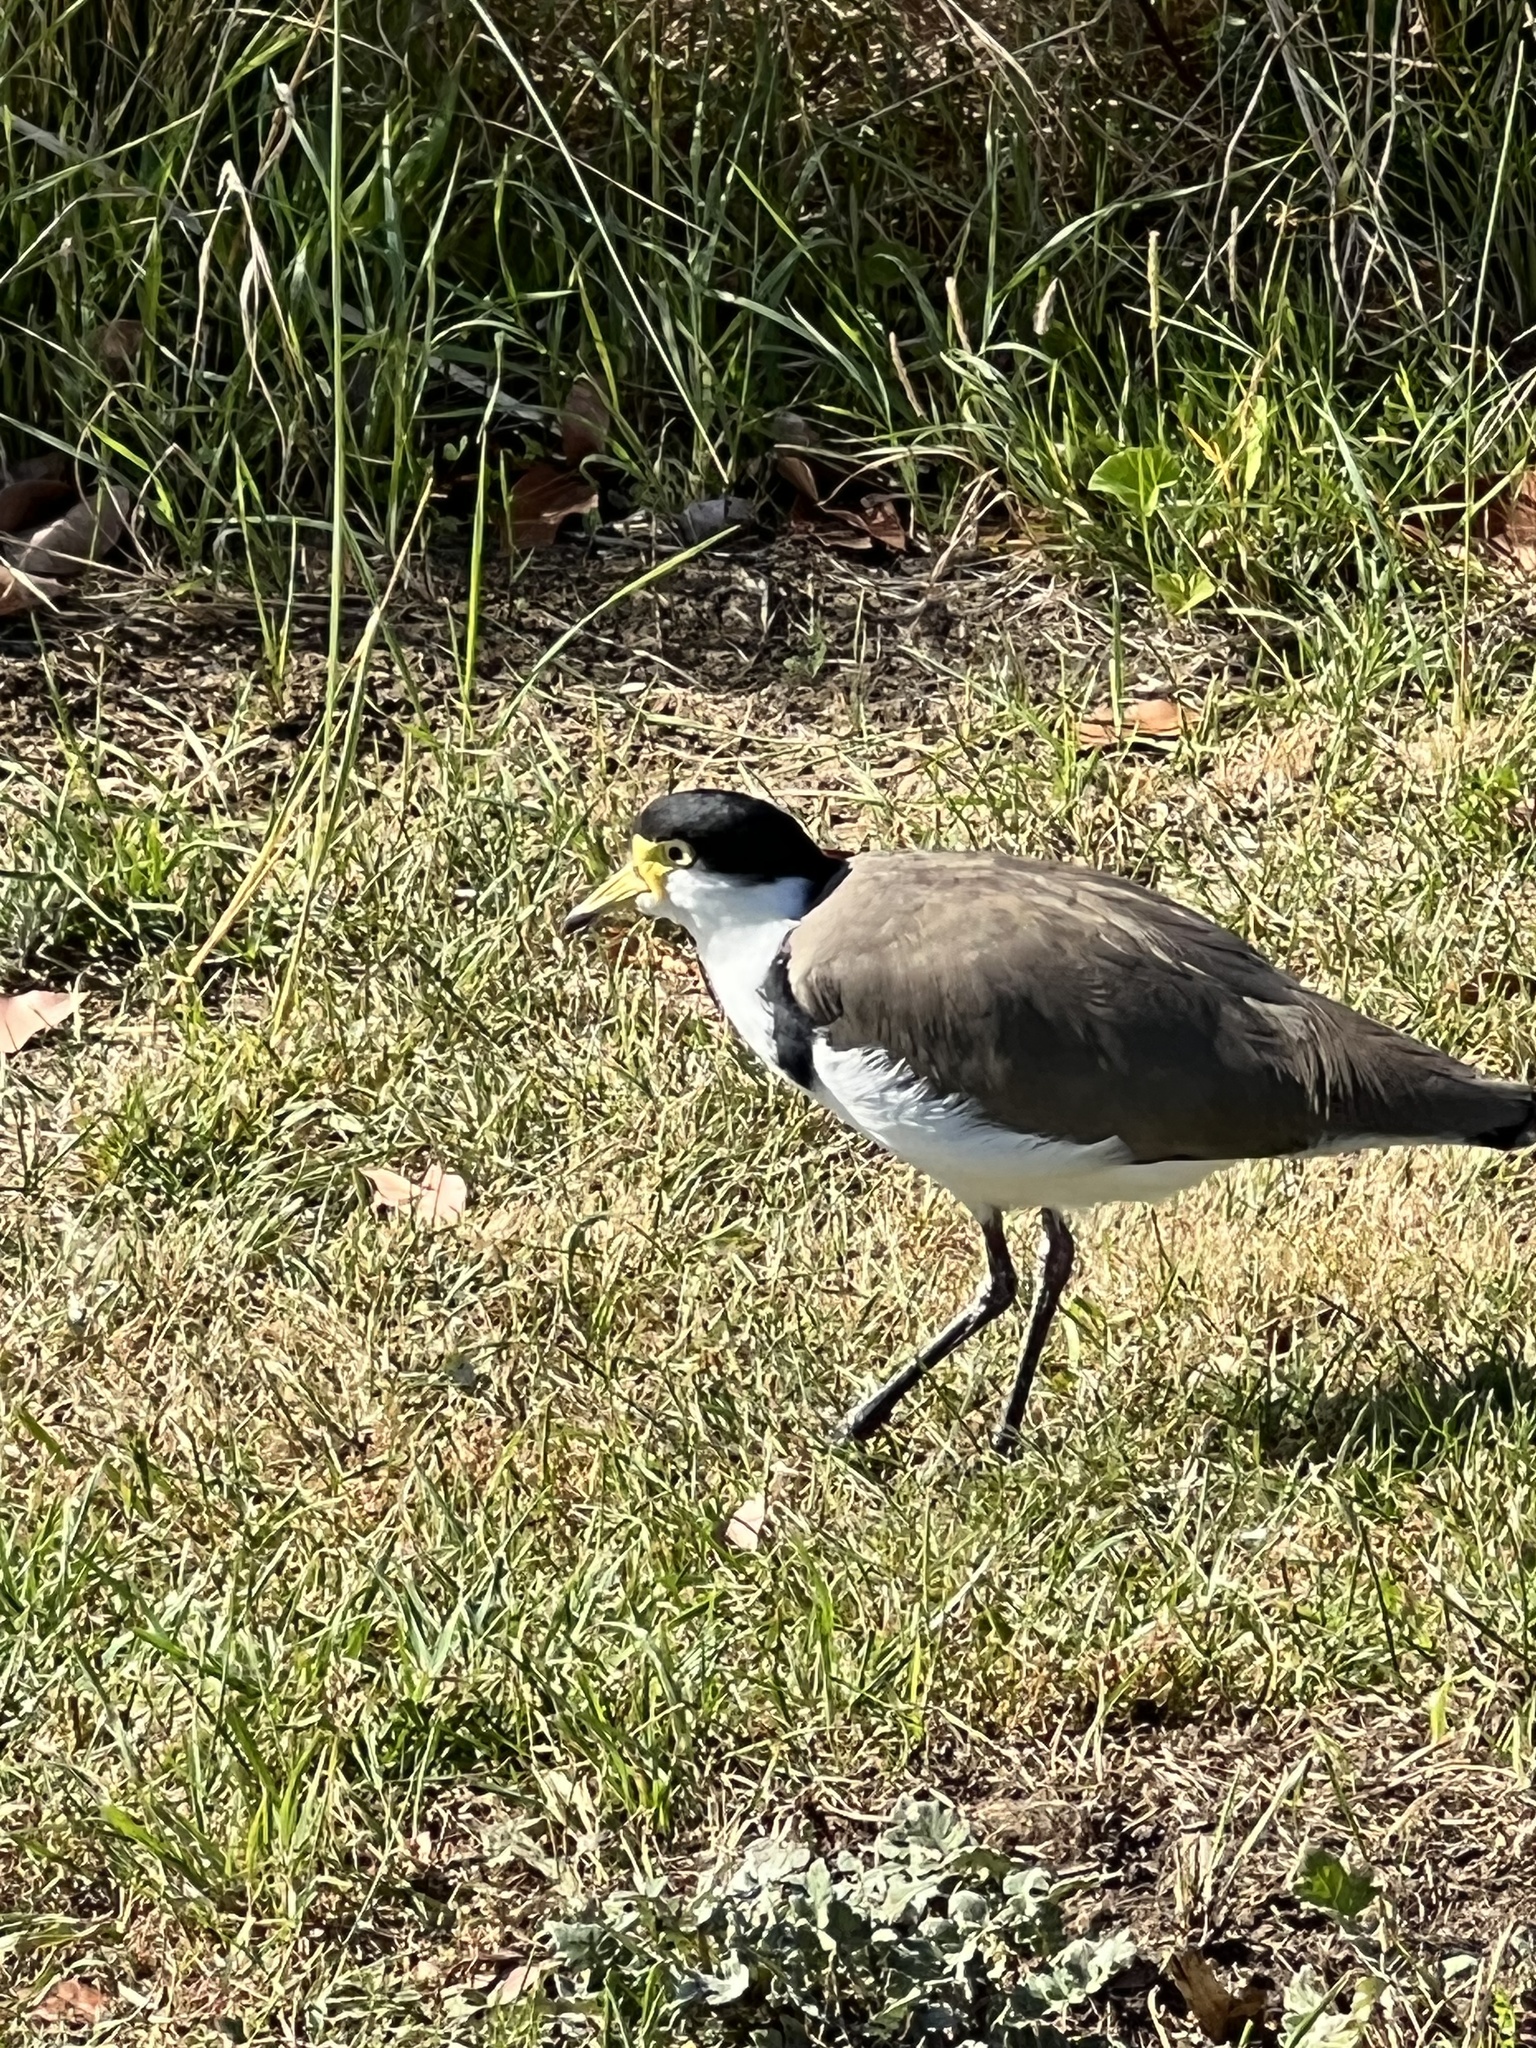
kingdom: Animalia
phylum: Chordata
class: Aves
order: Charadriiformes
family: Charadriidae
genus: Vanellus
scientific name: Vanellus miles
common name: Masked lapwing
